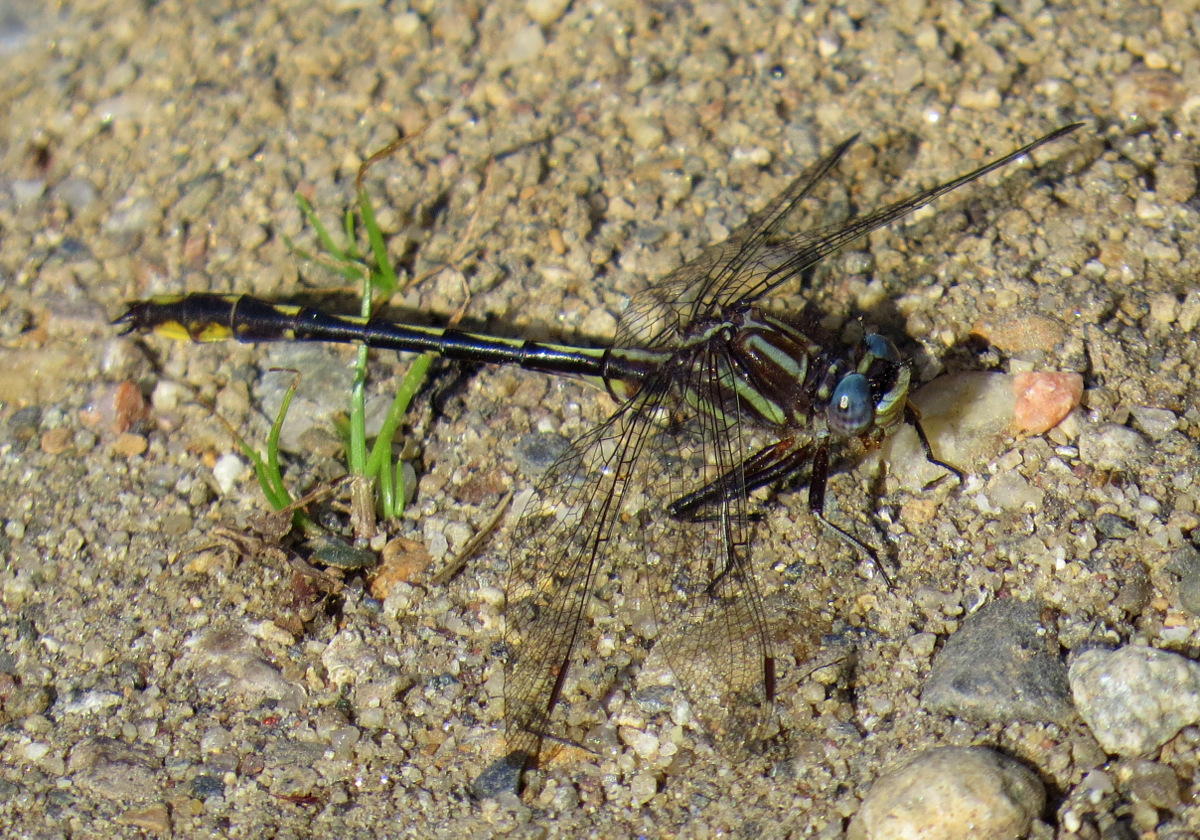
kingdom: Animalia
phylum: Arthropoda
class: Insecta
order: Odonata
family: Gomphidae
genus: Phanogomphus
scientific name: Phanogomphus exilis
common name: Lancet clubtail
